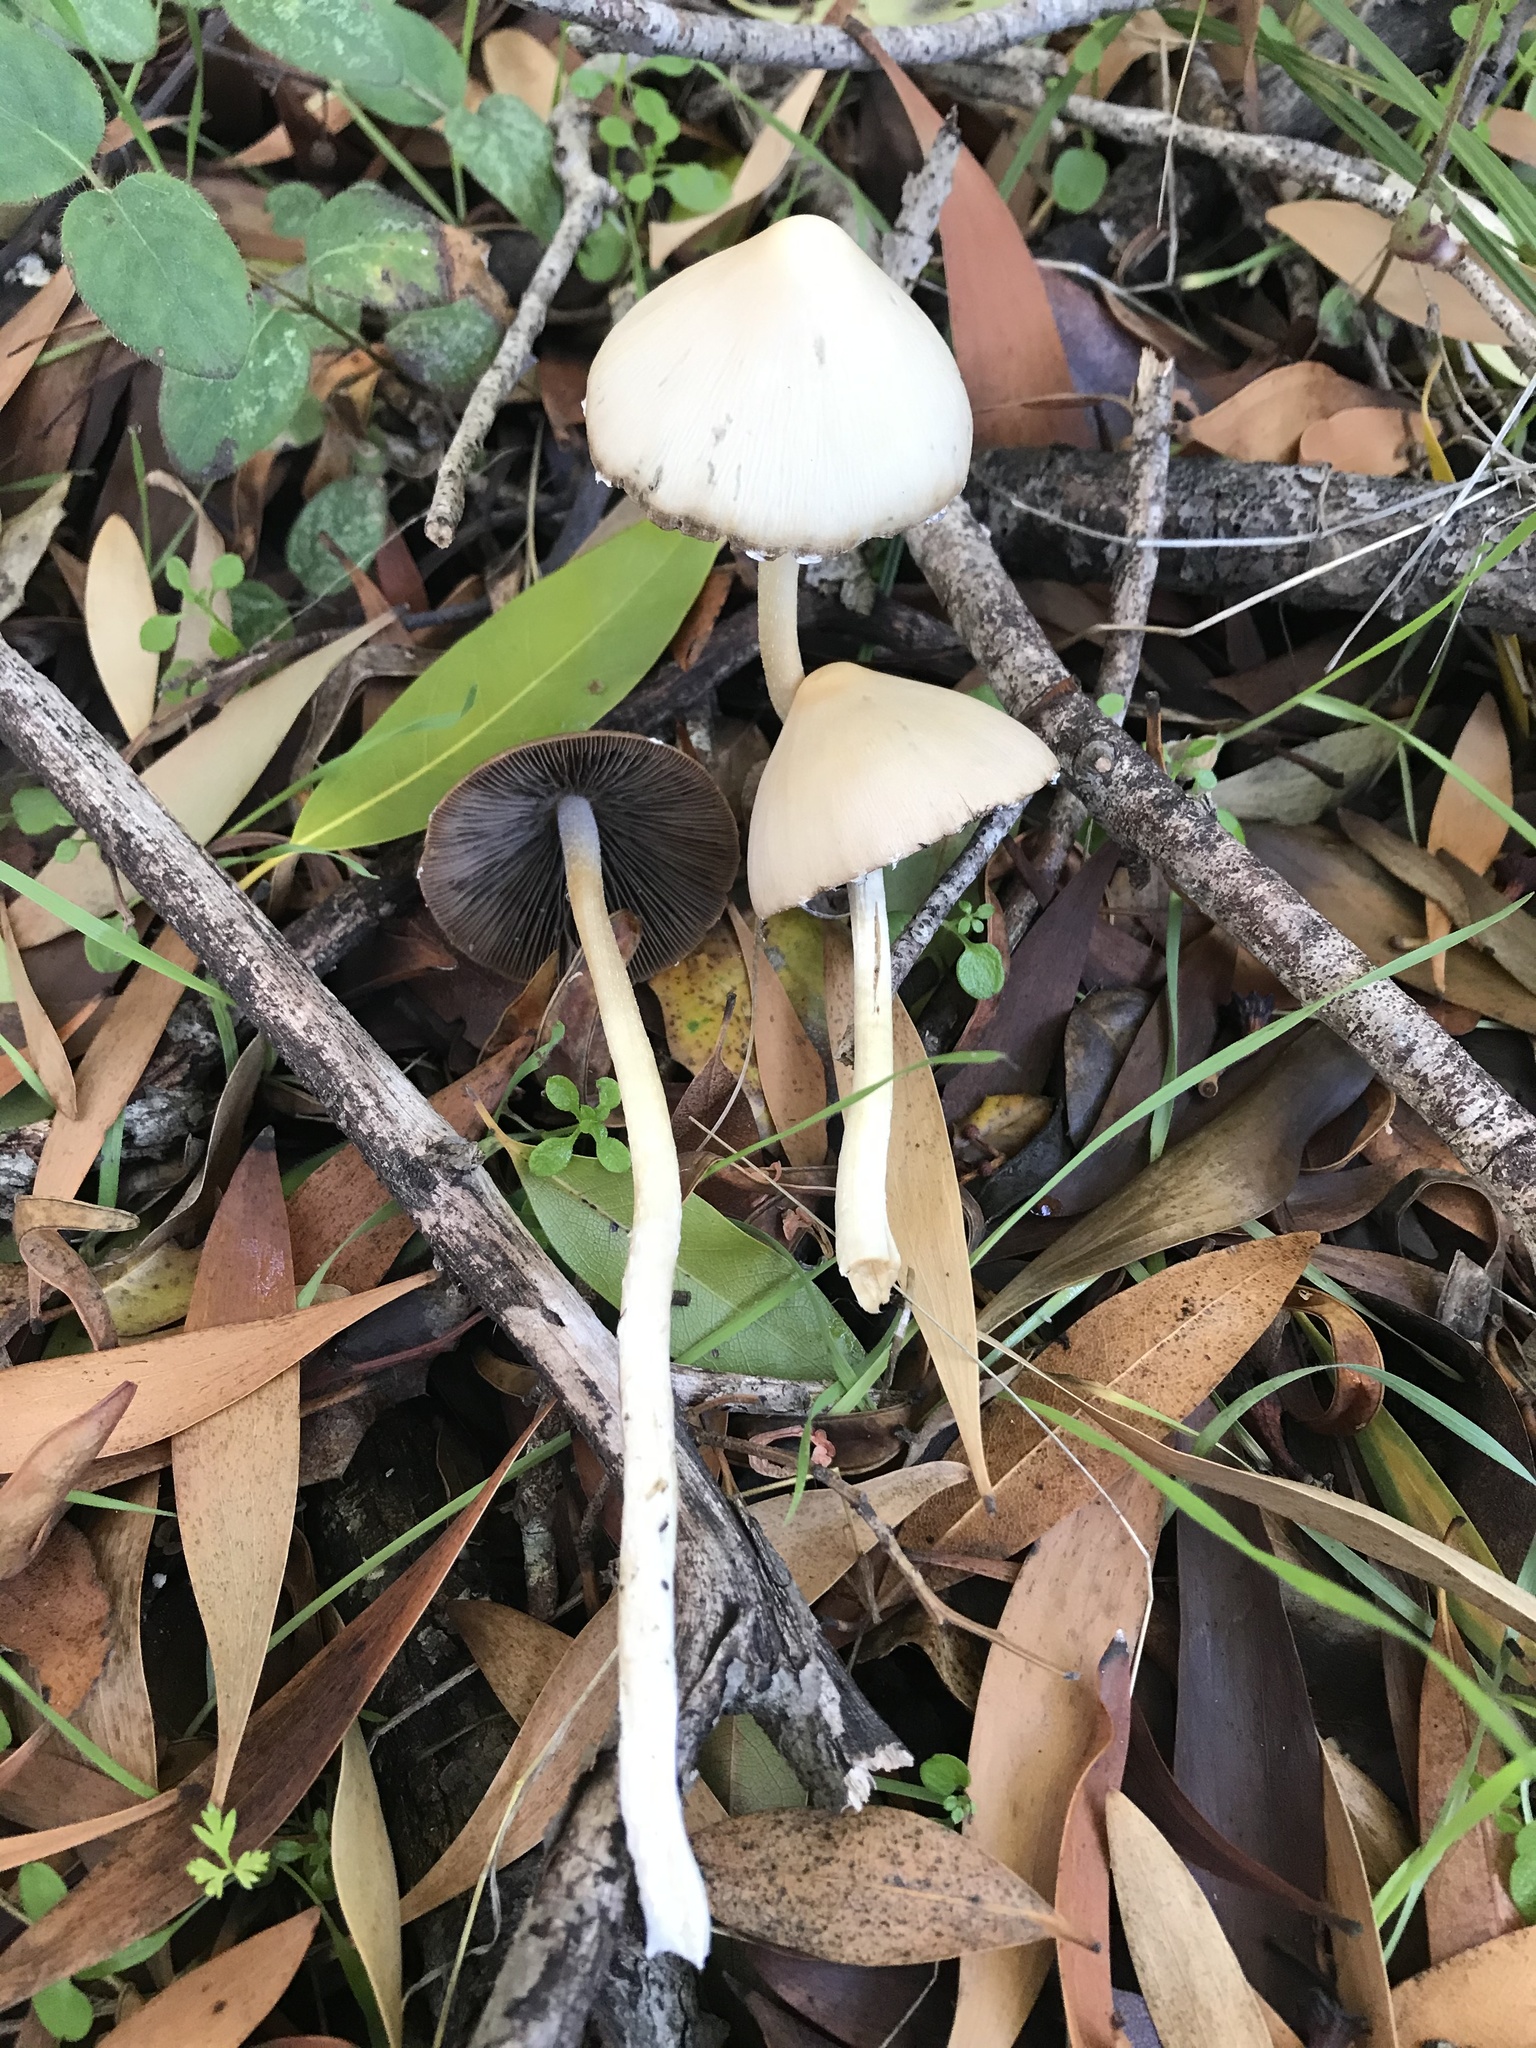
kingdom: Fungi
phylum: Basidiomycota
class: Agaricomycetes
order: Agaricales
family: Psathyrellaceae
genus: Psathyrella
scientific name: Psathyrella longipes
